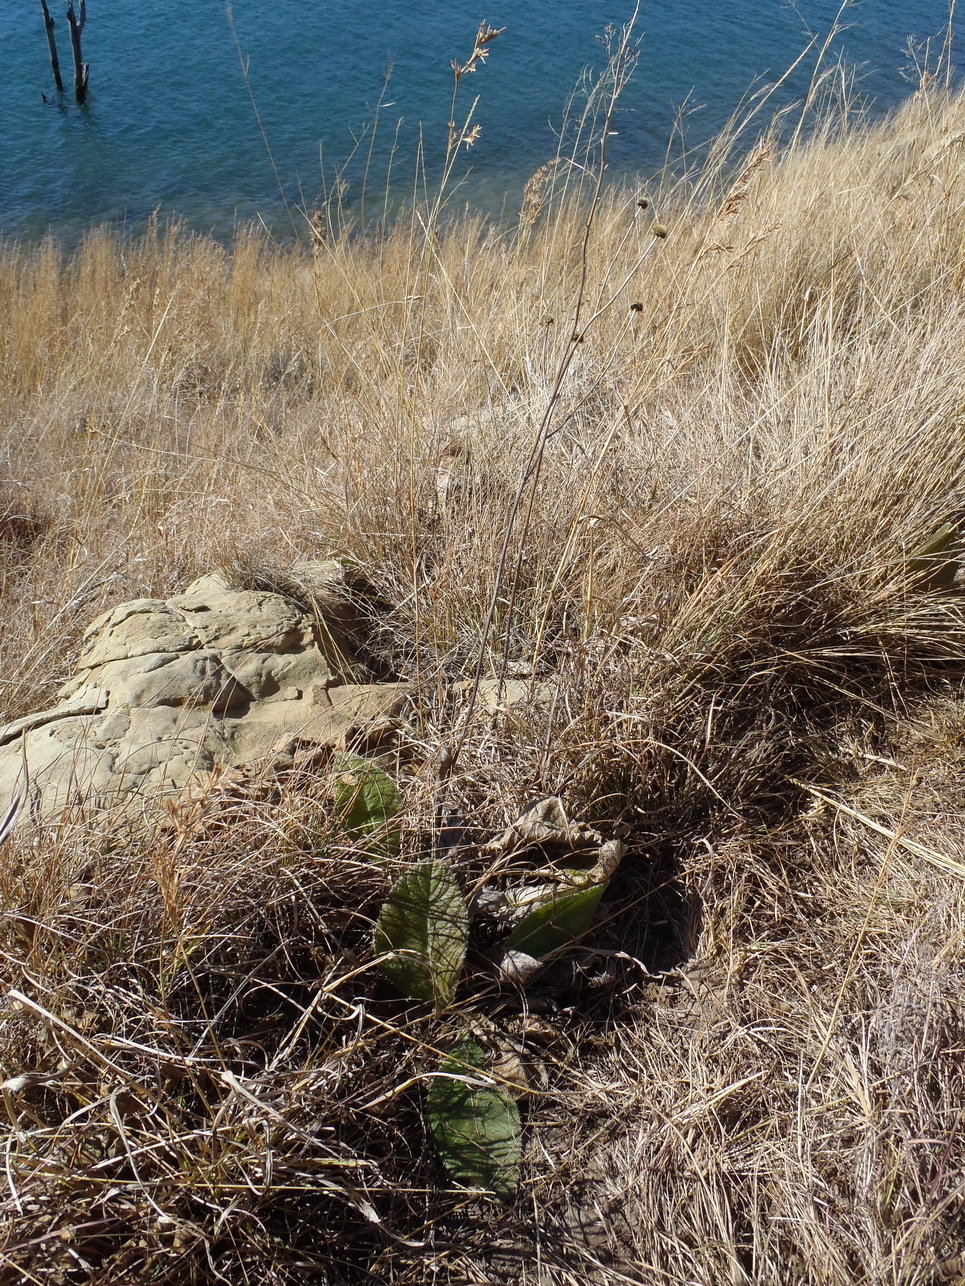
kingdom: Plantae
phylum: Tracheophyta
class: Magnoliopsida
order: Asterales
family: Asteraceae
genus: Berkheya
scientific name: Berkheya setifera
